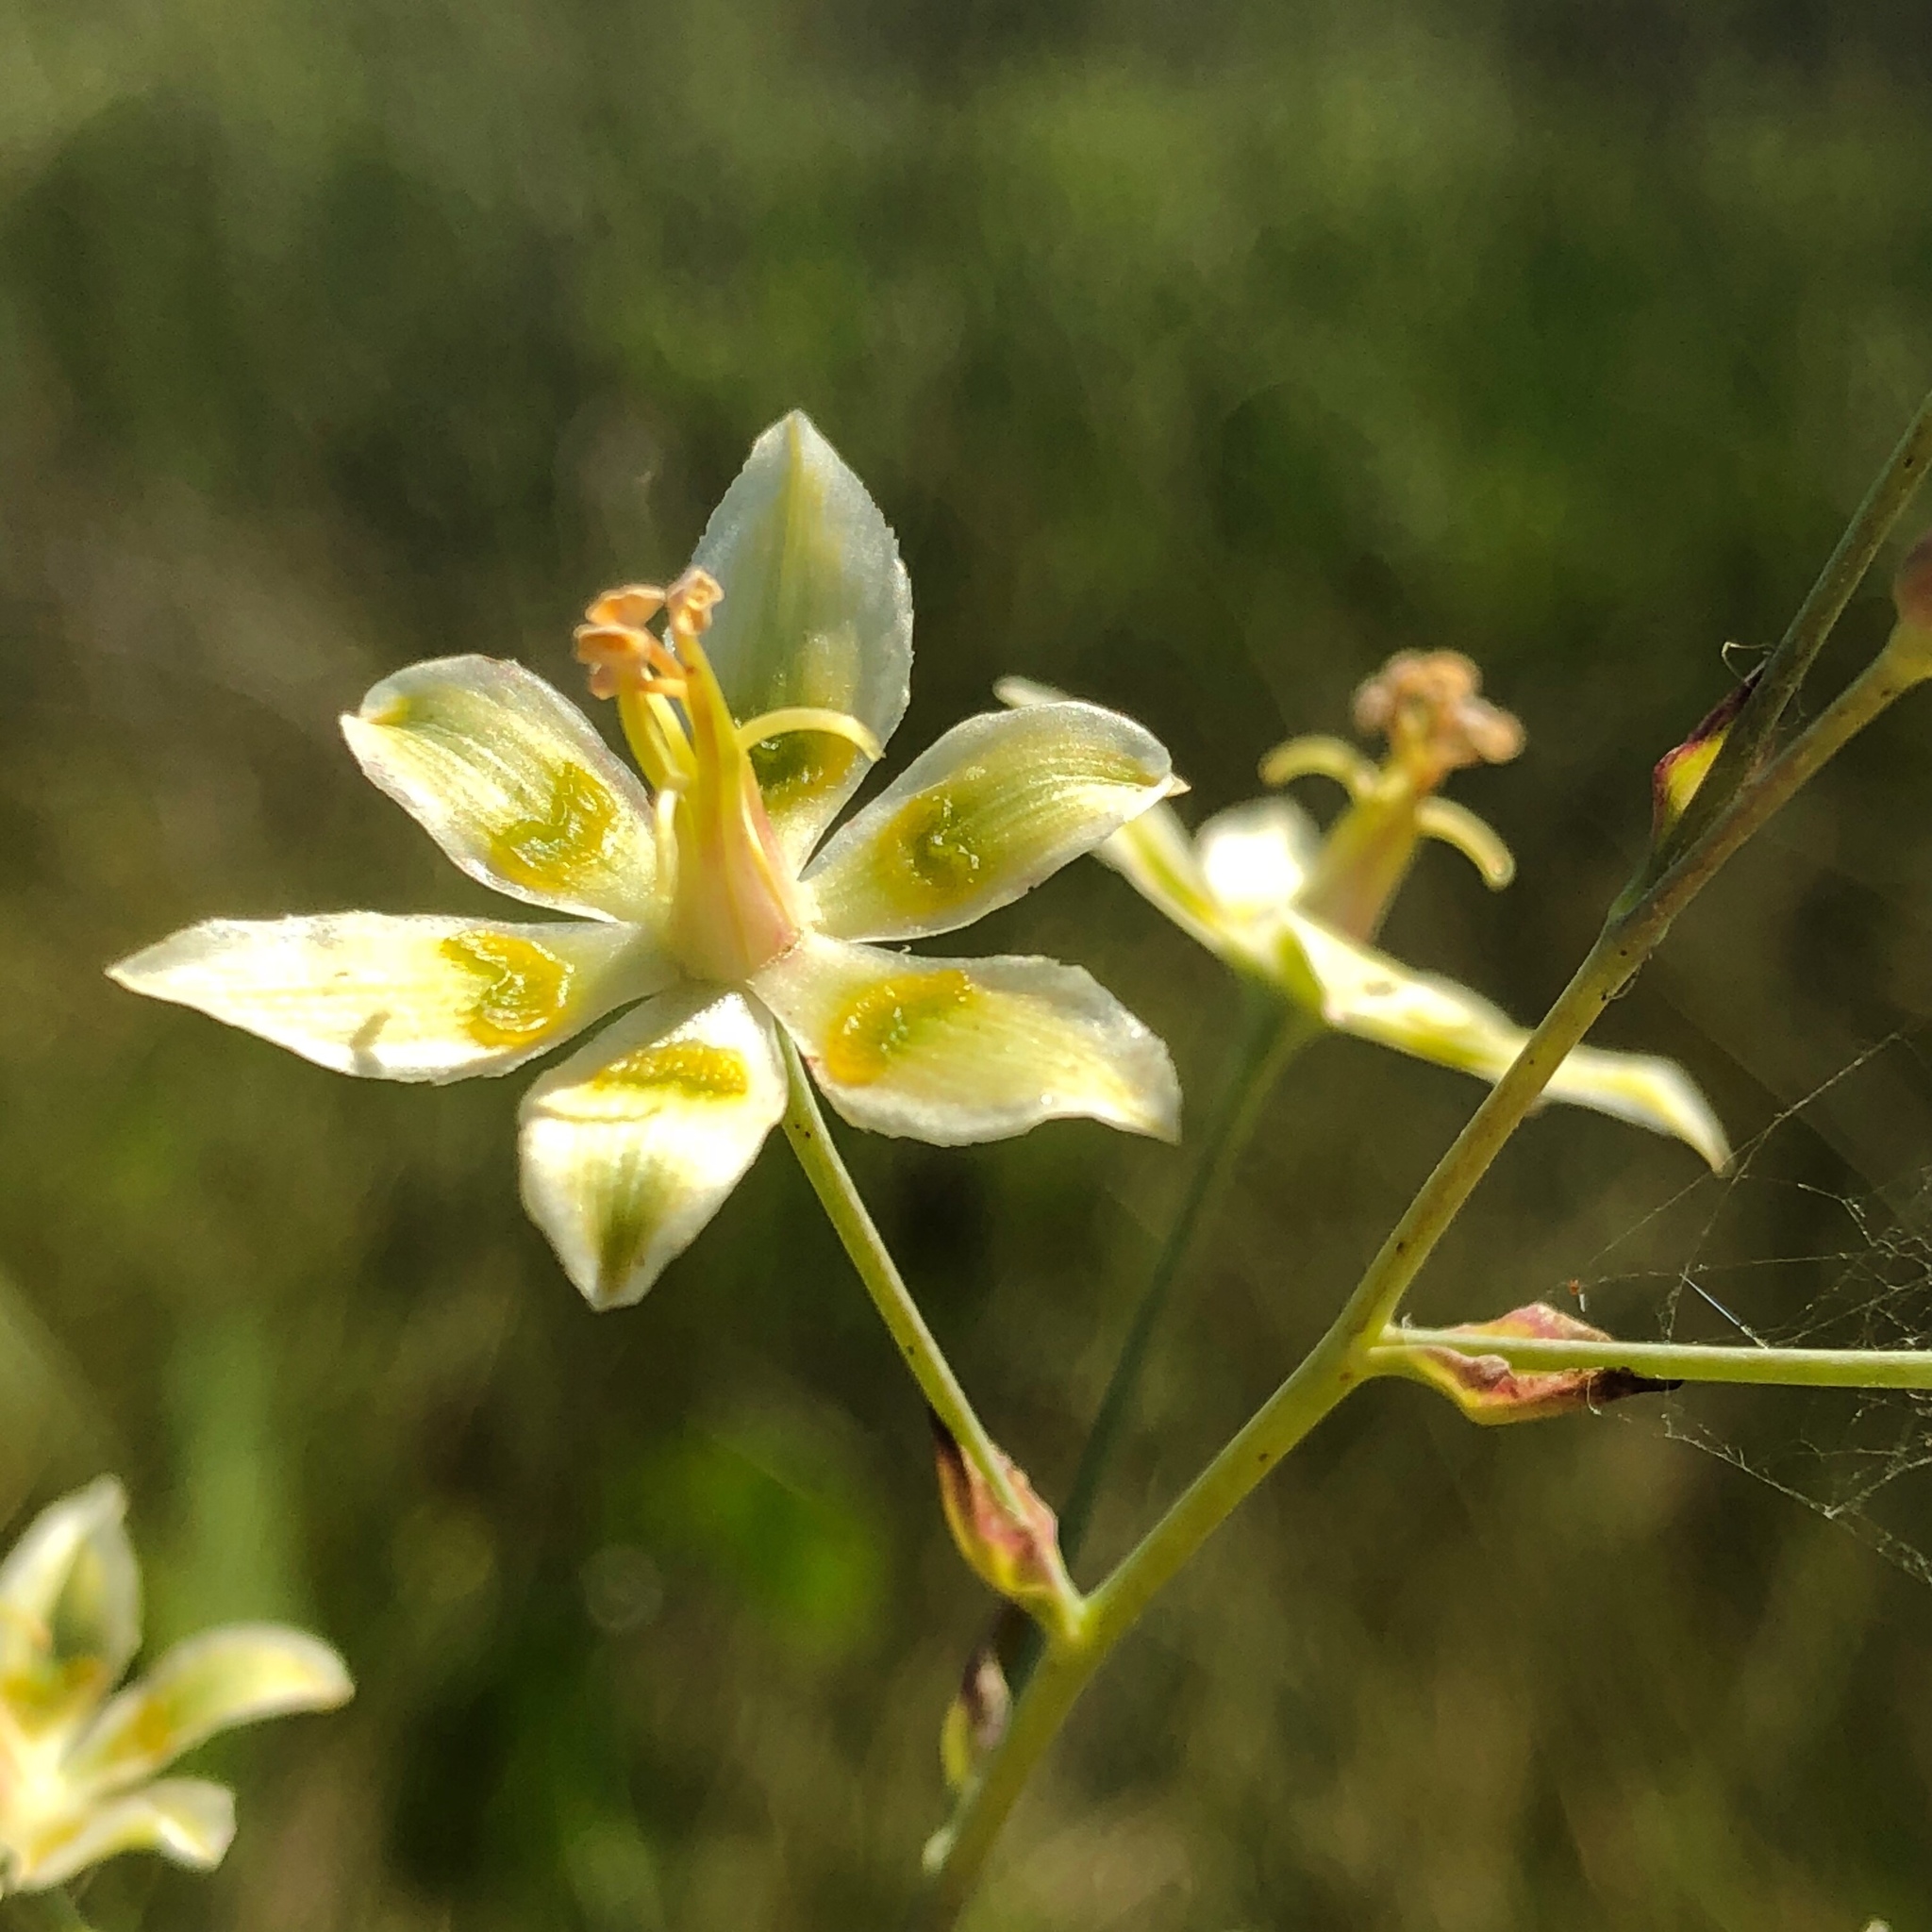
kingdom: Plantae
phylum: Tracheophyta
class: Liliopsida
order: Liliales
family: Melanthiaceae
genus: Anticlea
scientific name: Anticlea elegans
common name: Mountain death camas
